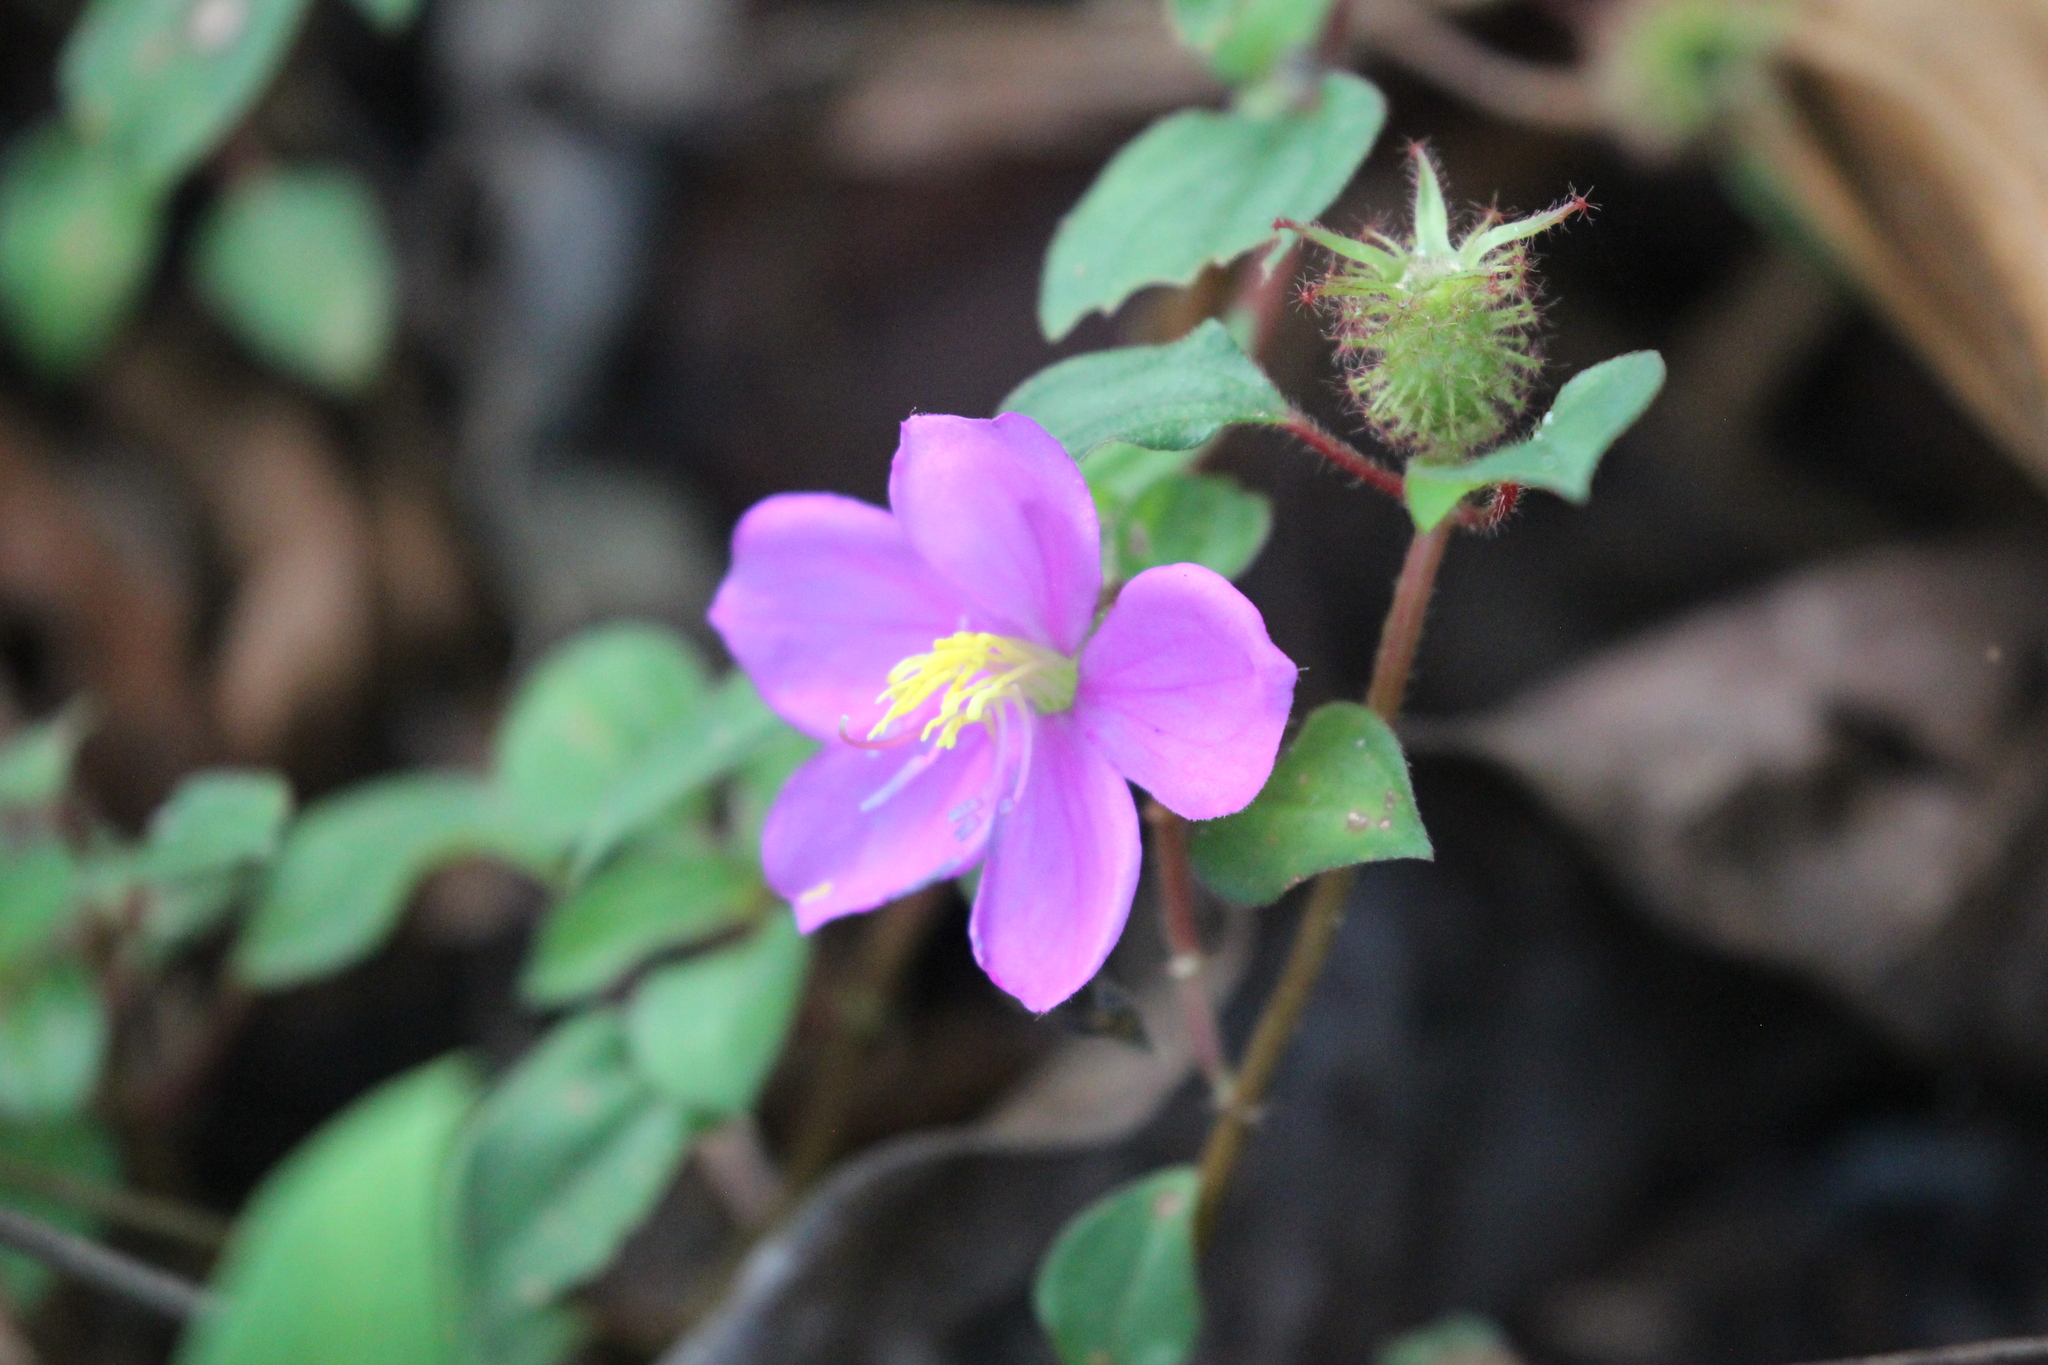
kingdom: Plantae
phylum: Tracheophyta
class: Magnoliopsida
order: Myrtales
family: Melastomataceae
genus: Heterotis
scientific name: Heterotis rotundifolia
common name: Pinklady
